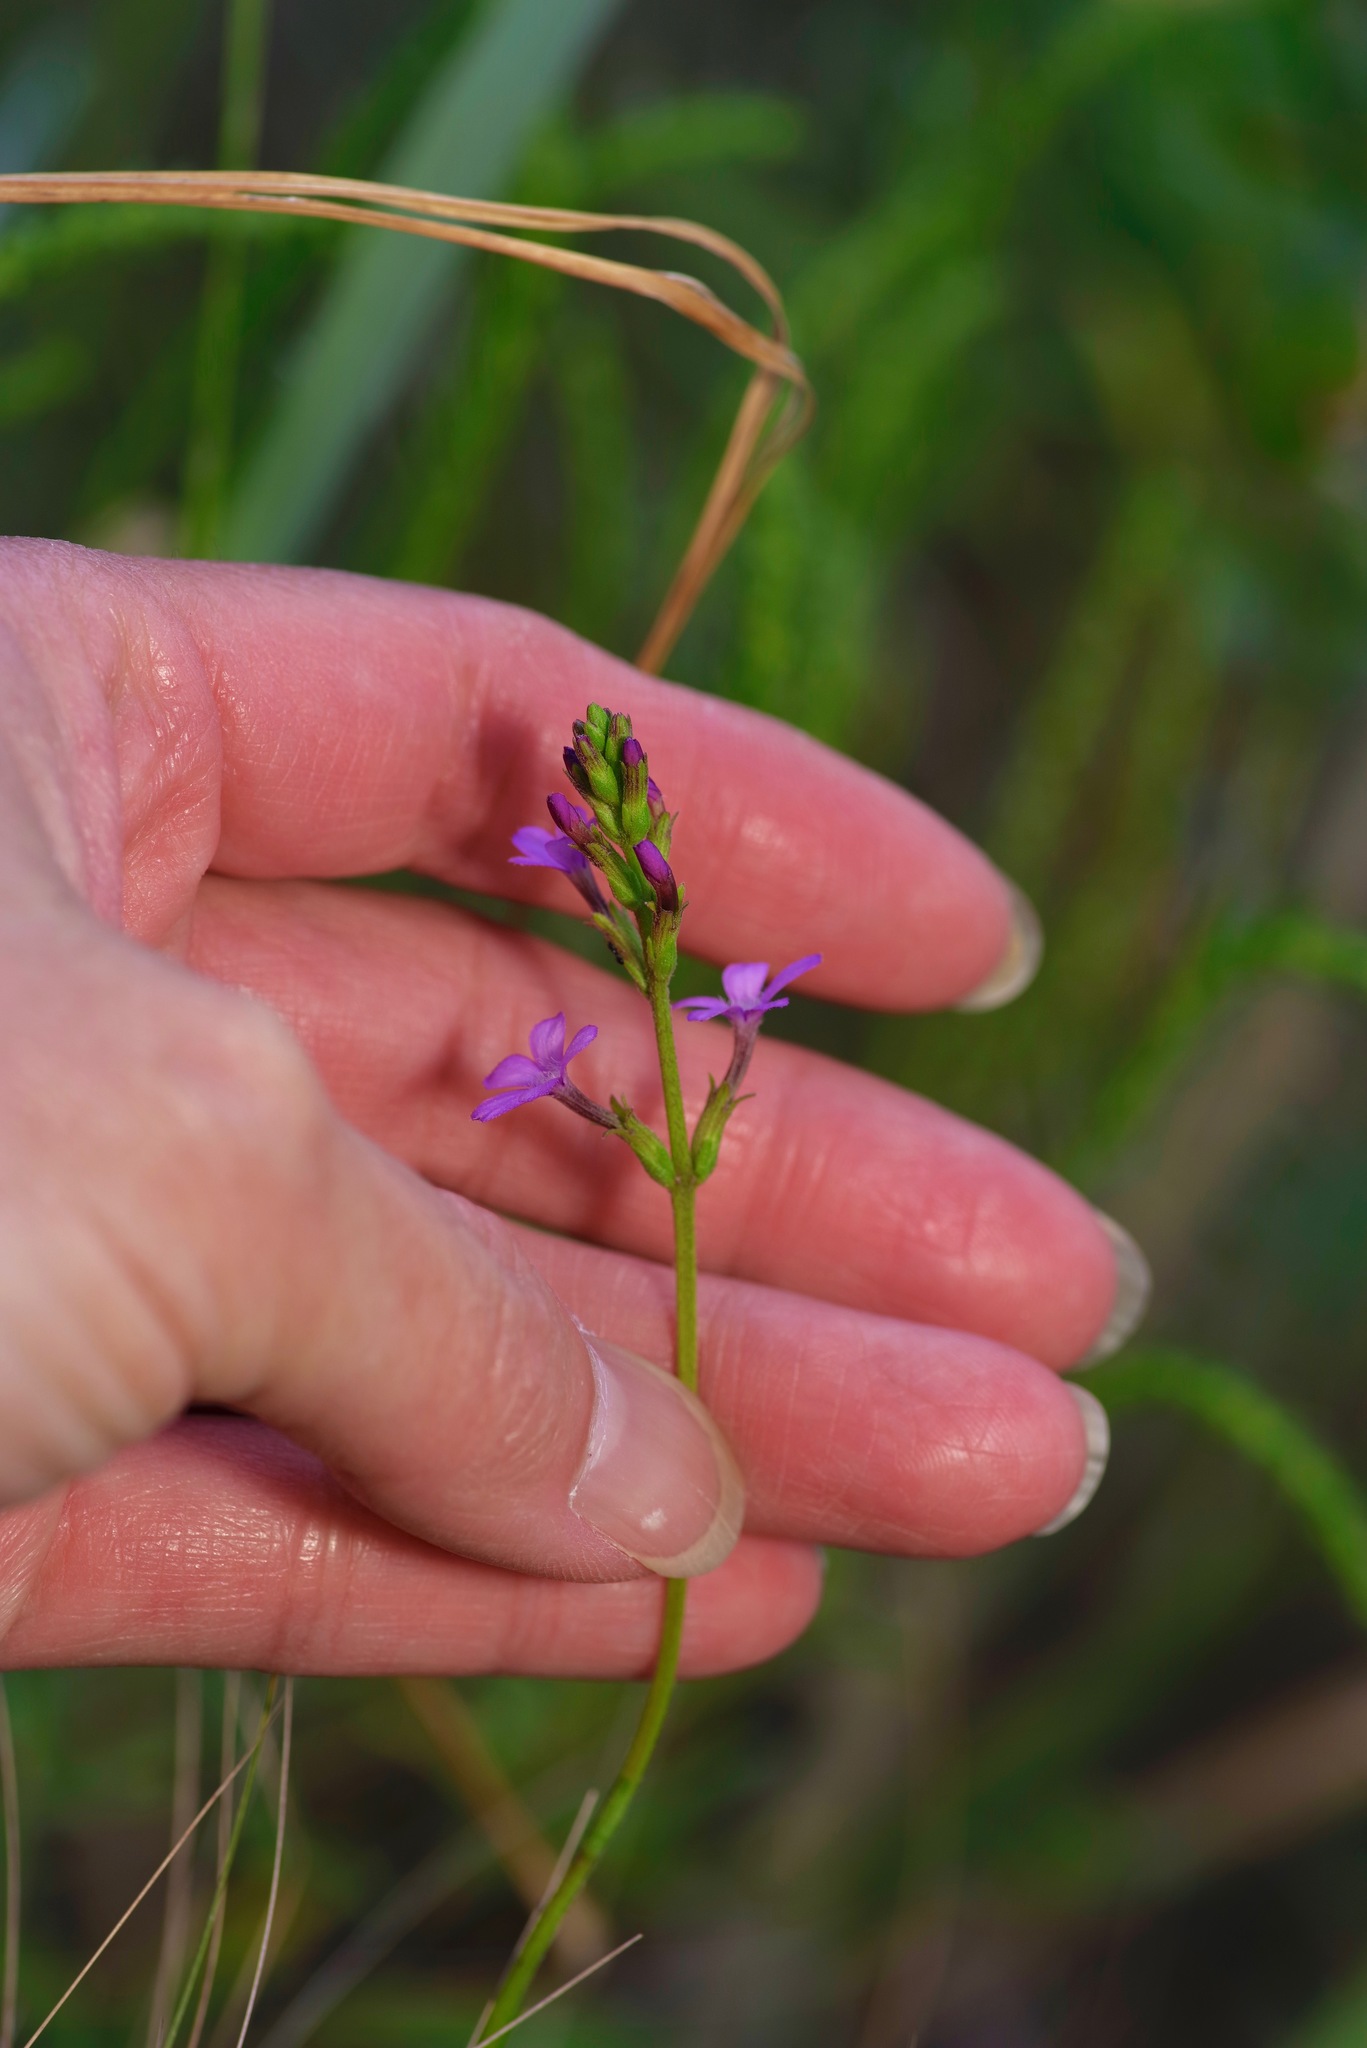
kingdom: Plantae
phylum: Tracheophyta
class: Magnoliopsida
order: Lamiales
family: Orobanchaceae
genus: Buchnera
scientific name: Buchnera floridana
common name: Florida bluehearts
